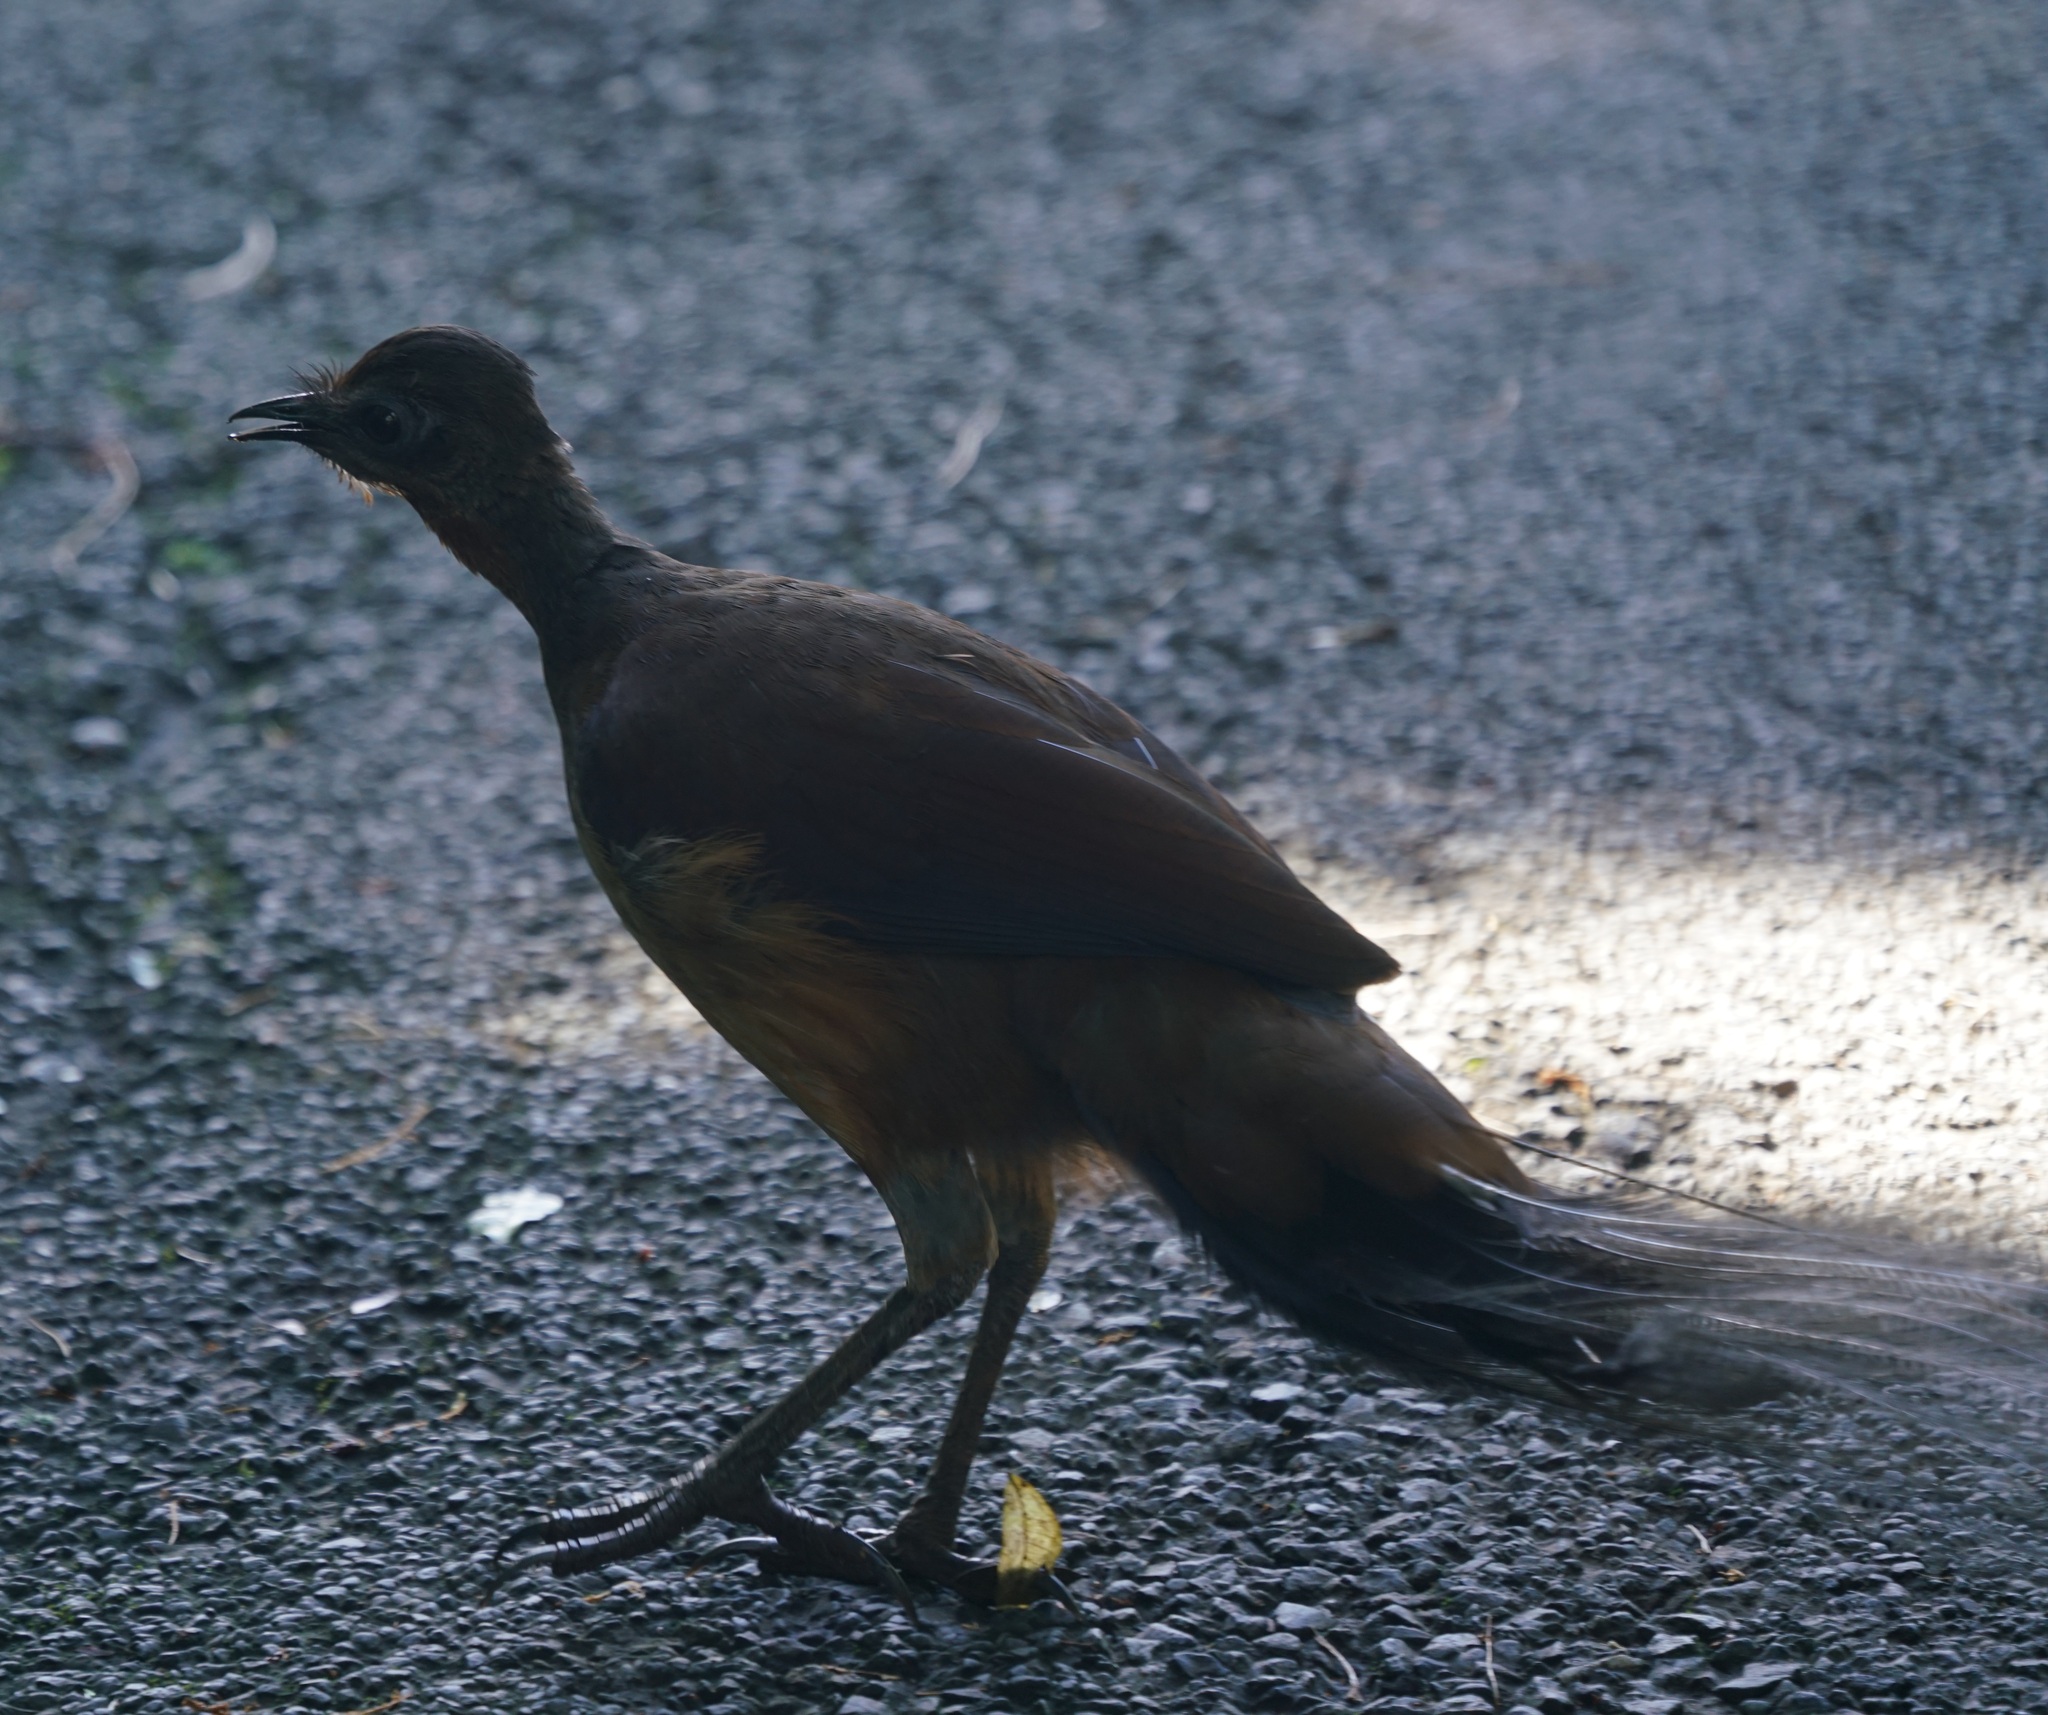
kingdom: Animalia
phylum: Chordata
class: Aves
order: Passeriformes
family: Menuridae
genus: Menura
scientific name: Menura alberti
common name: Albert's lyrebird
